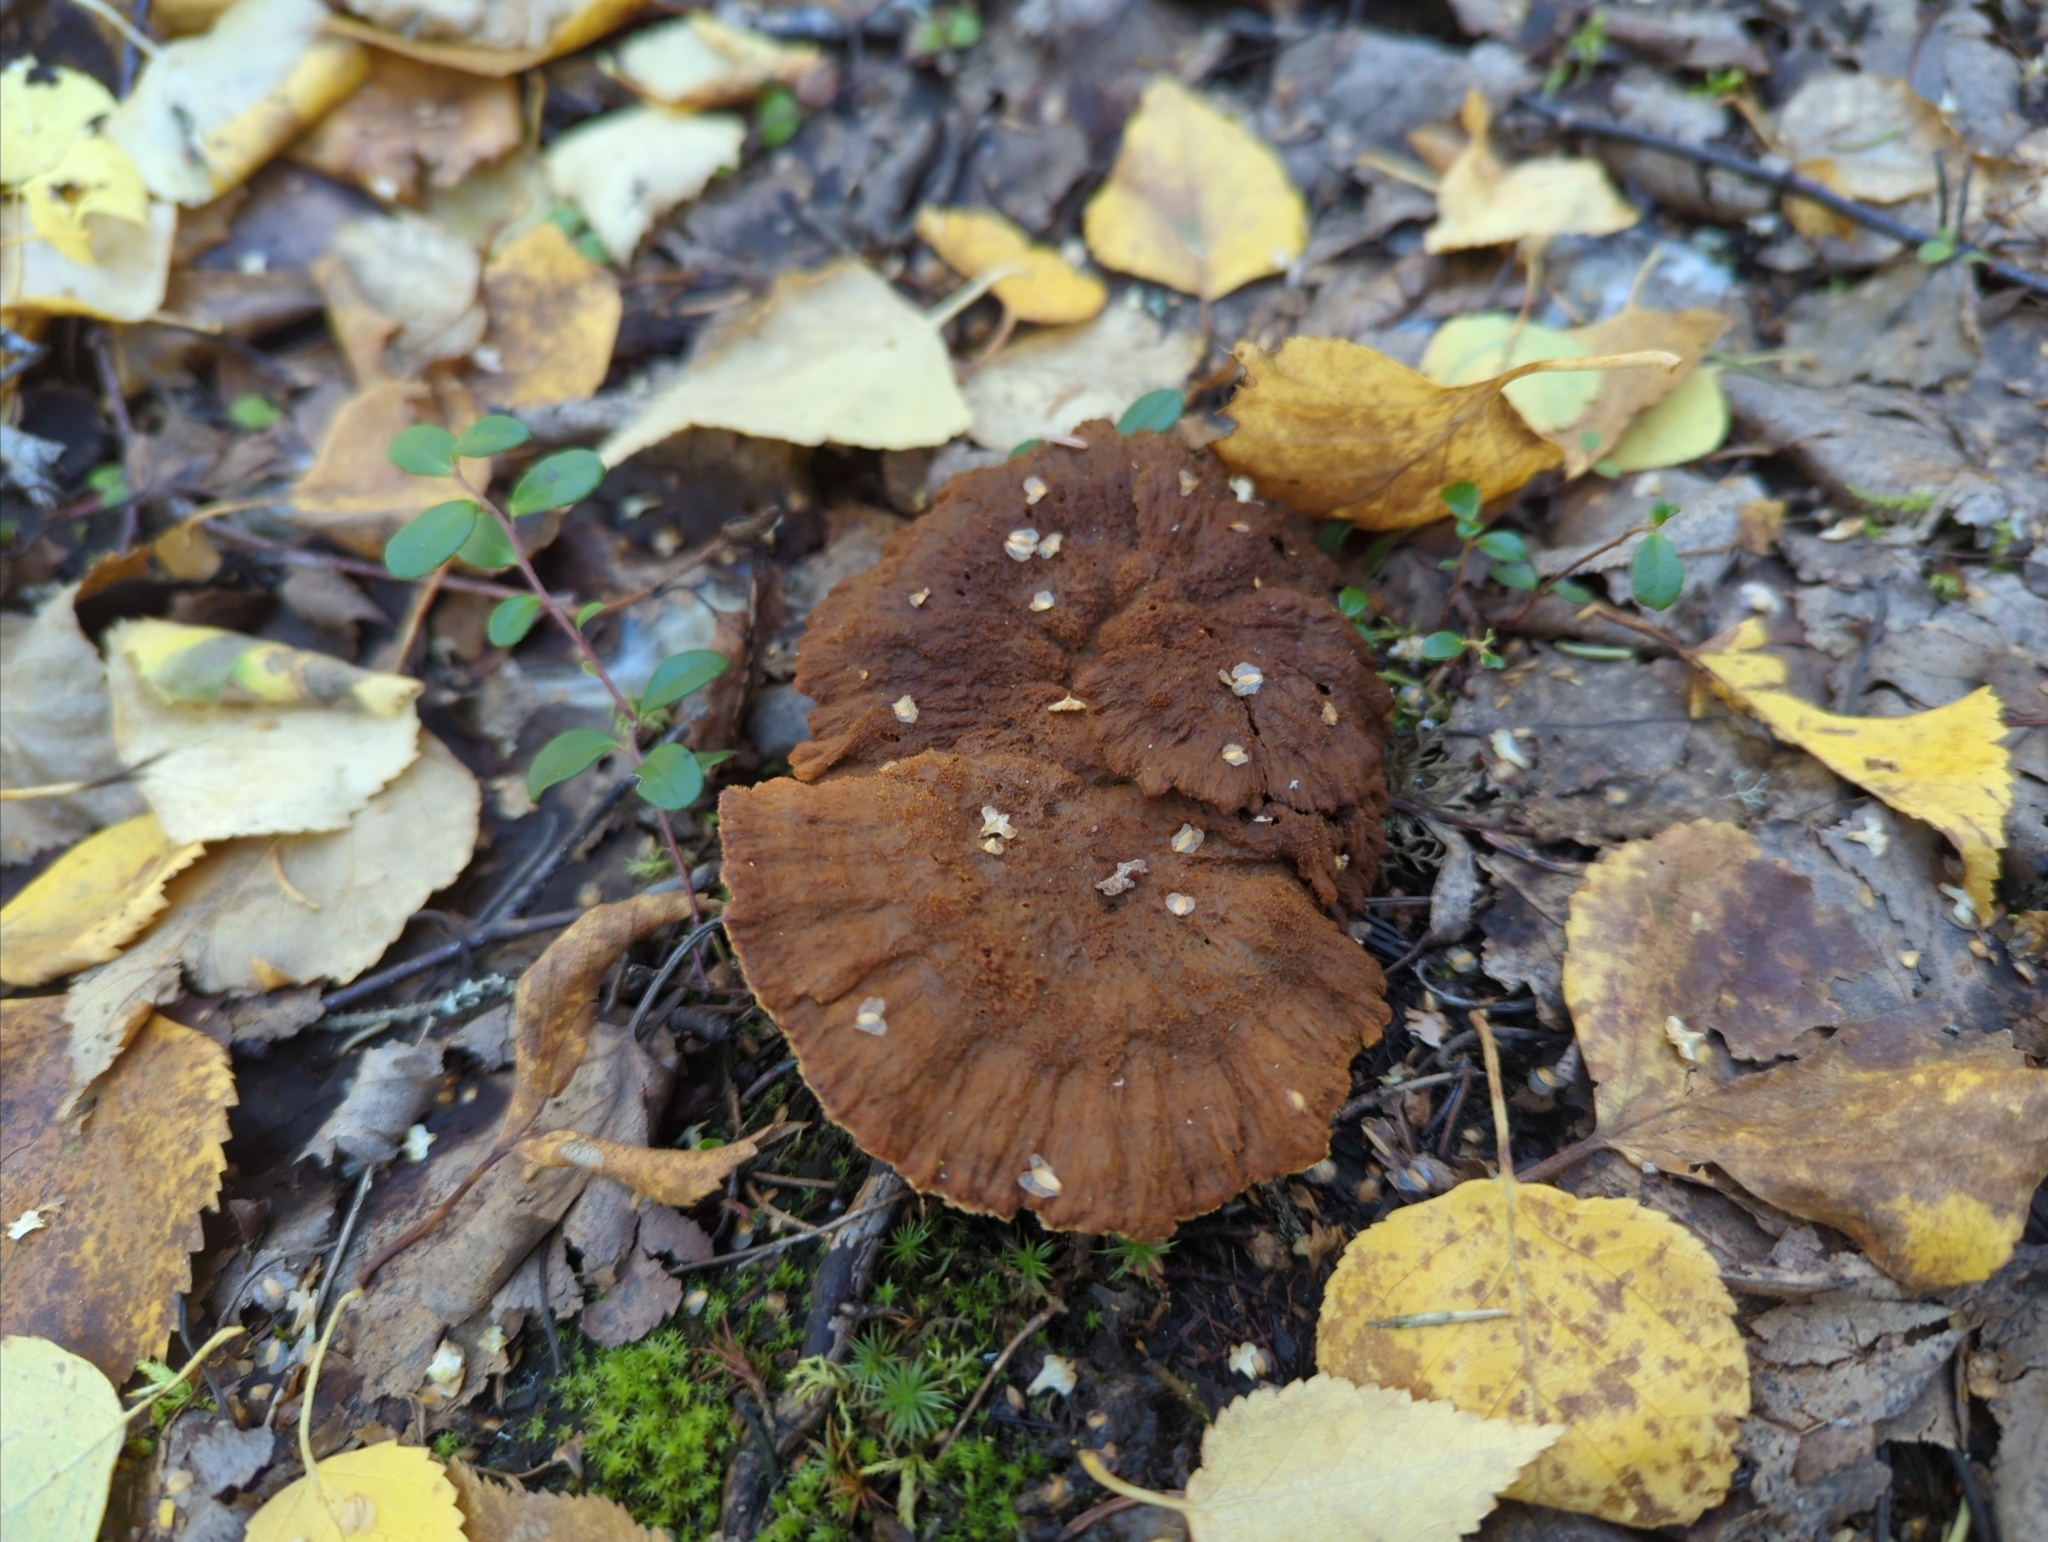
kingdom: Fungi
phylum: Basidiomycota
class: Agaricomycetes
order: Hymenochaetales
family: Hymenochaetaceae
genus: Onnia
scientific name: Onnia tomentosa
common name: Velvet rosette
